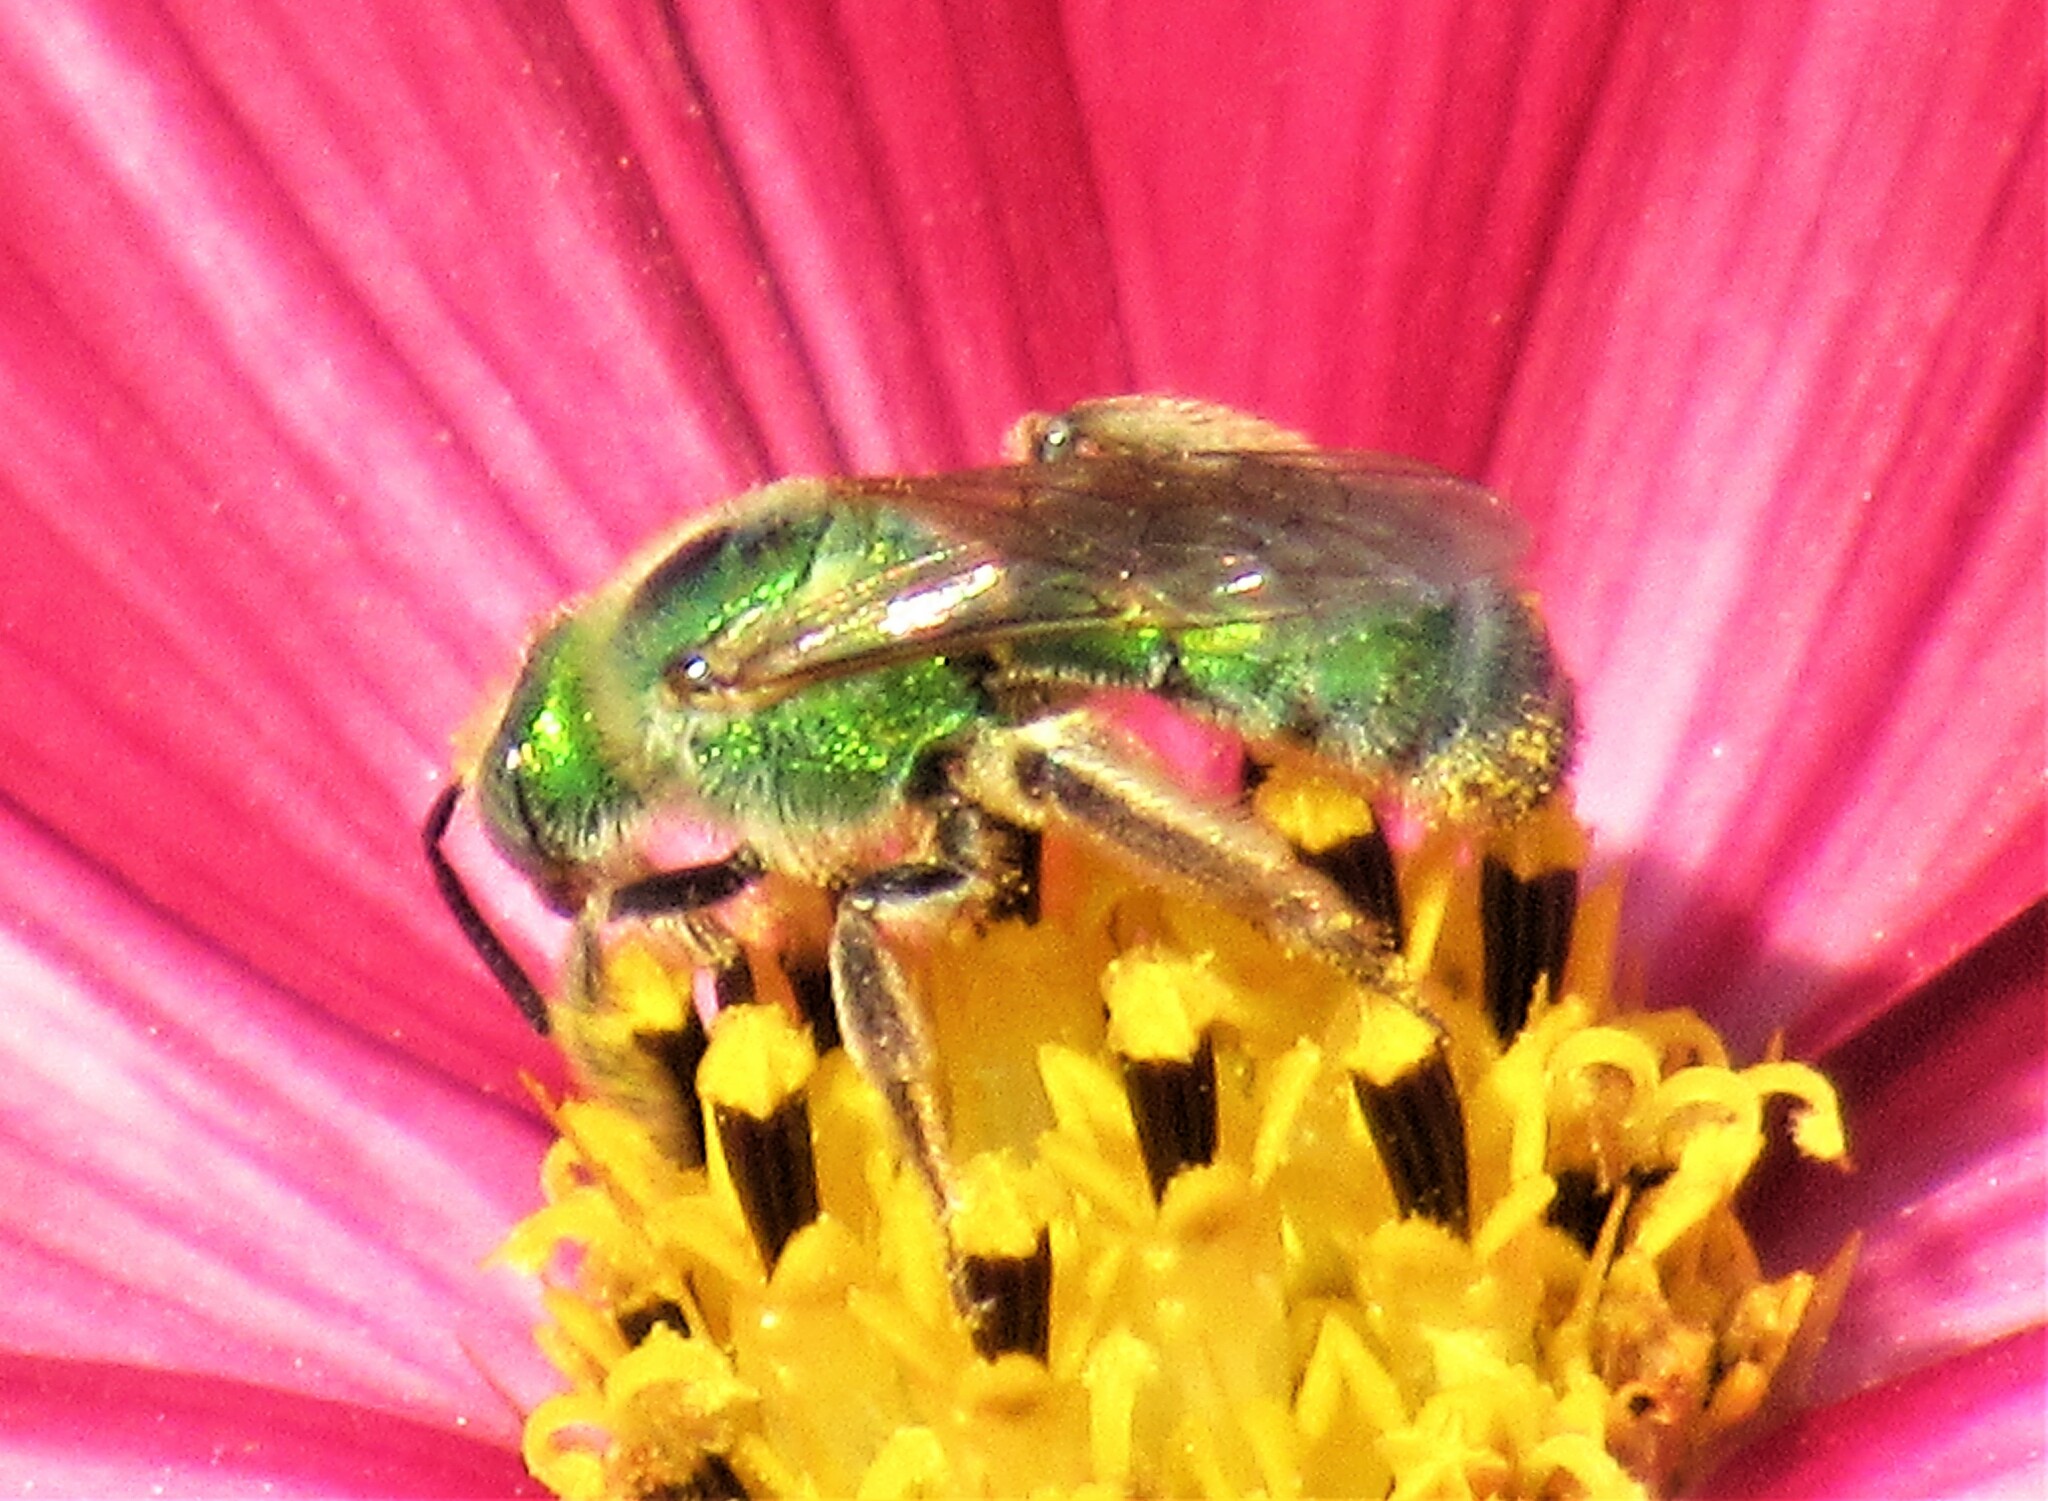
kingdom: Animalia
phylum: Arthropoda
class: Insecta
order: Hymenoptera
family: Halictidae
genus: Agapostemon
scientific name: Agapostemon texanus
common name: Texas striped sweat bee
